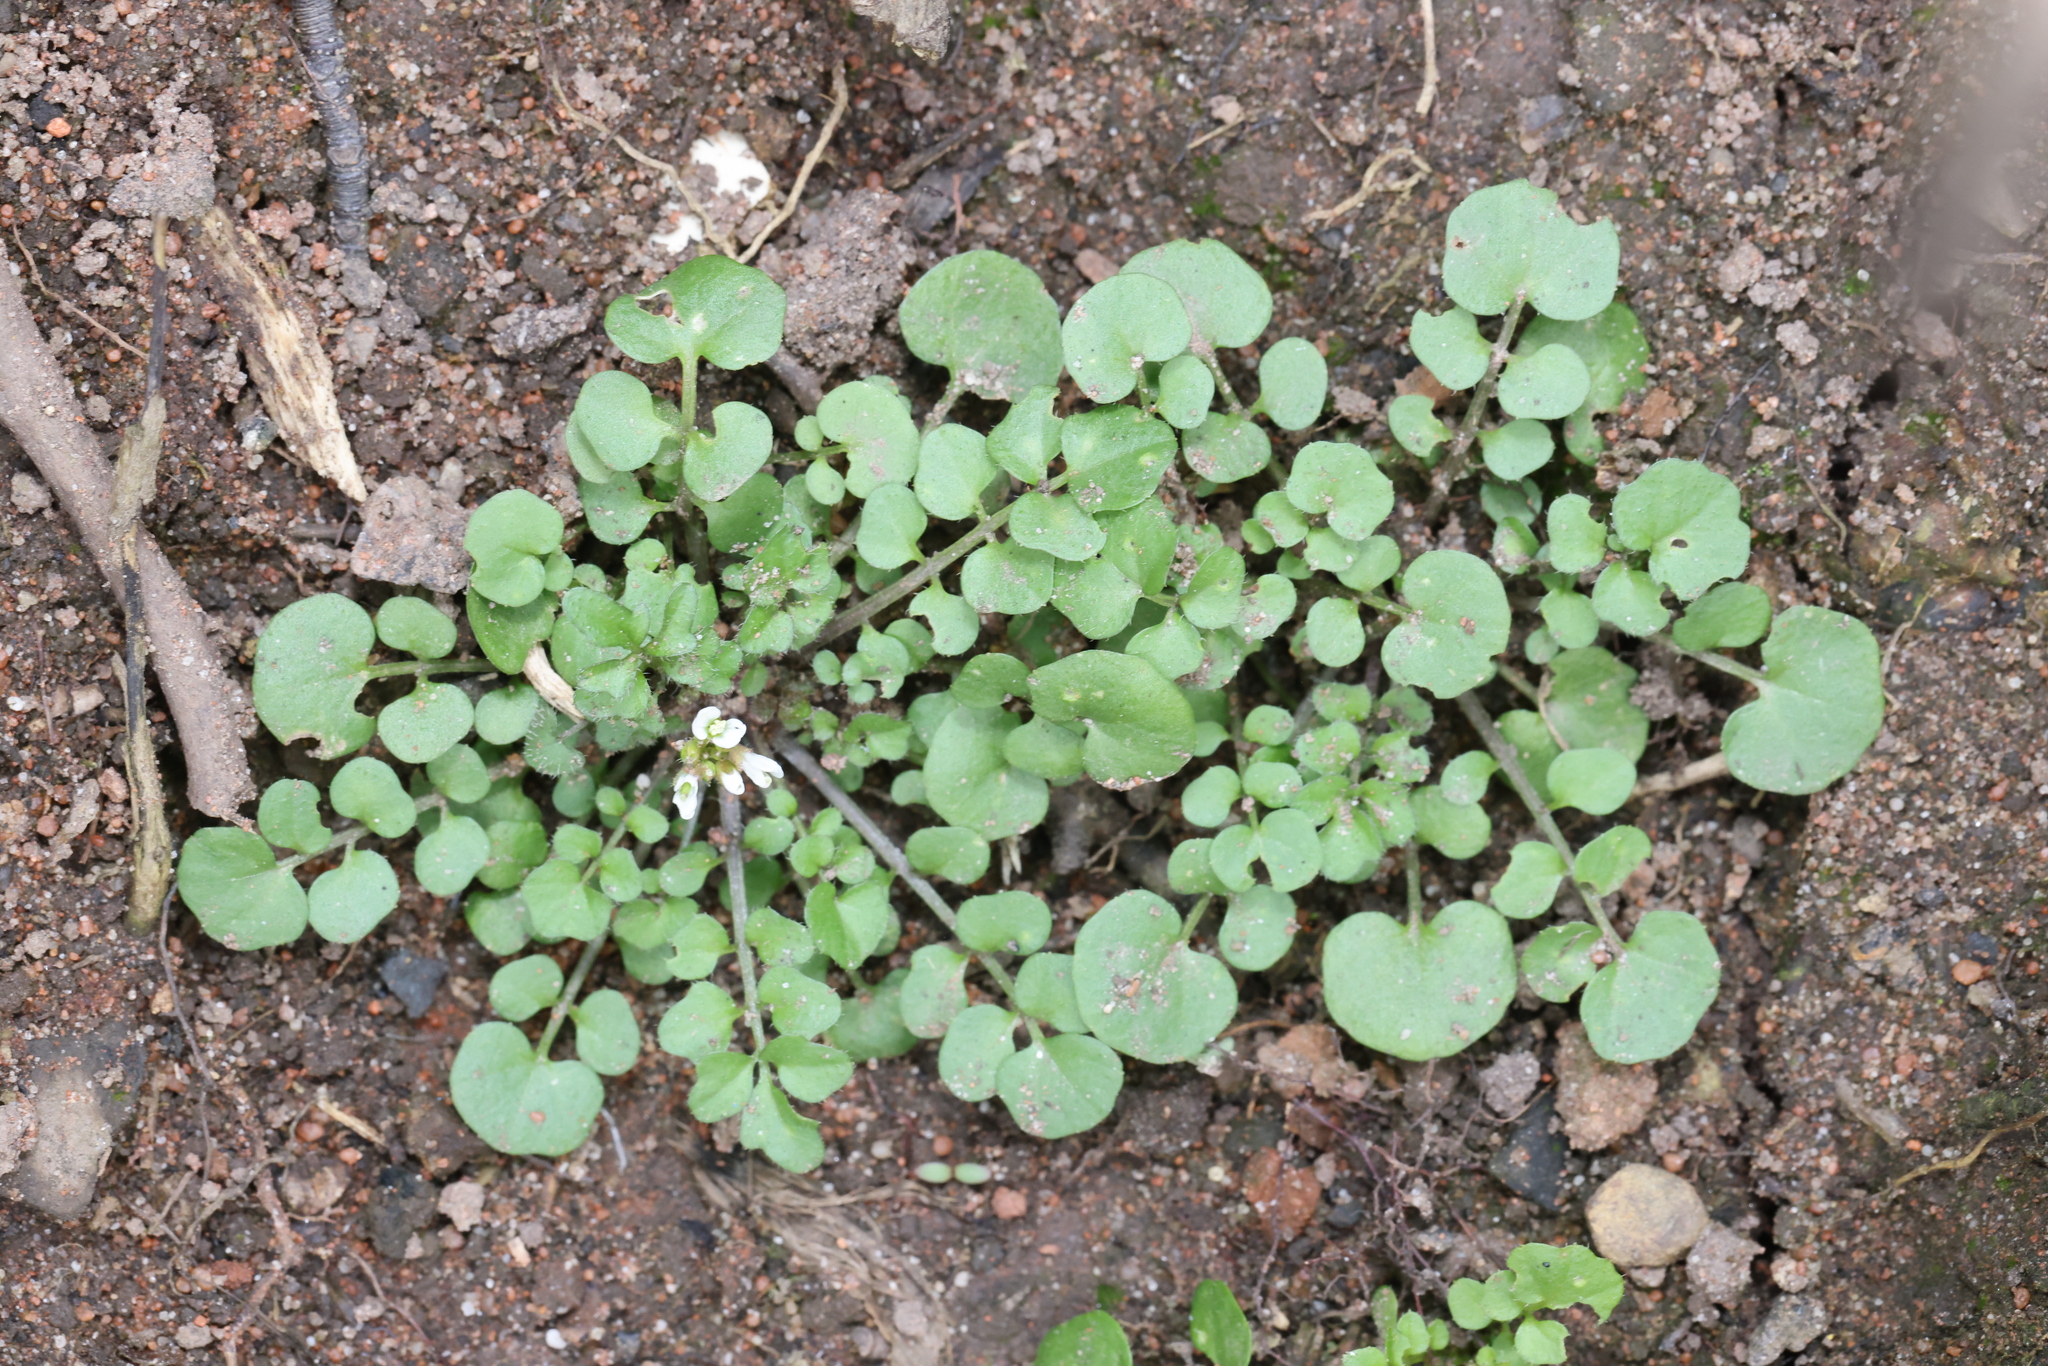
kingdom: Plantae
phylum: Tracheophyta
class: Magnoliopsida
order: Brassicales
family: Brassicaceae
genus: Cardamine
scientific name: Cardamine hirsuta
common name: Hairy bittercress
